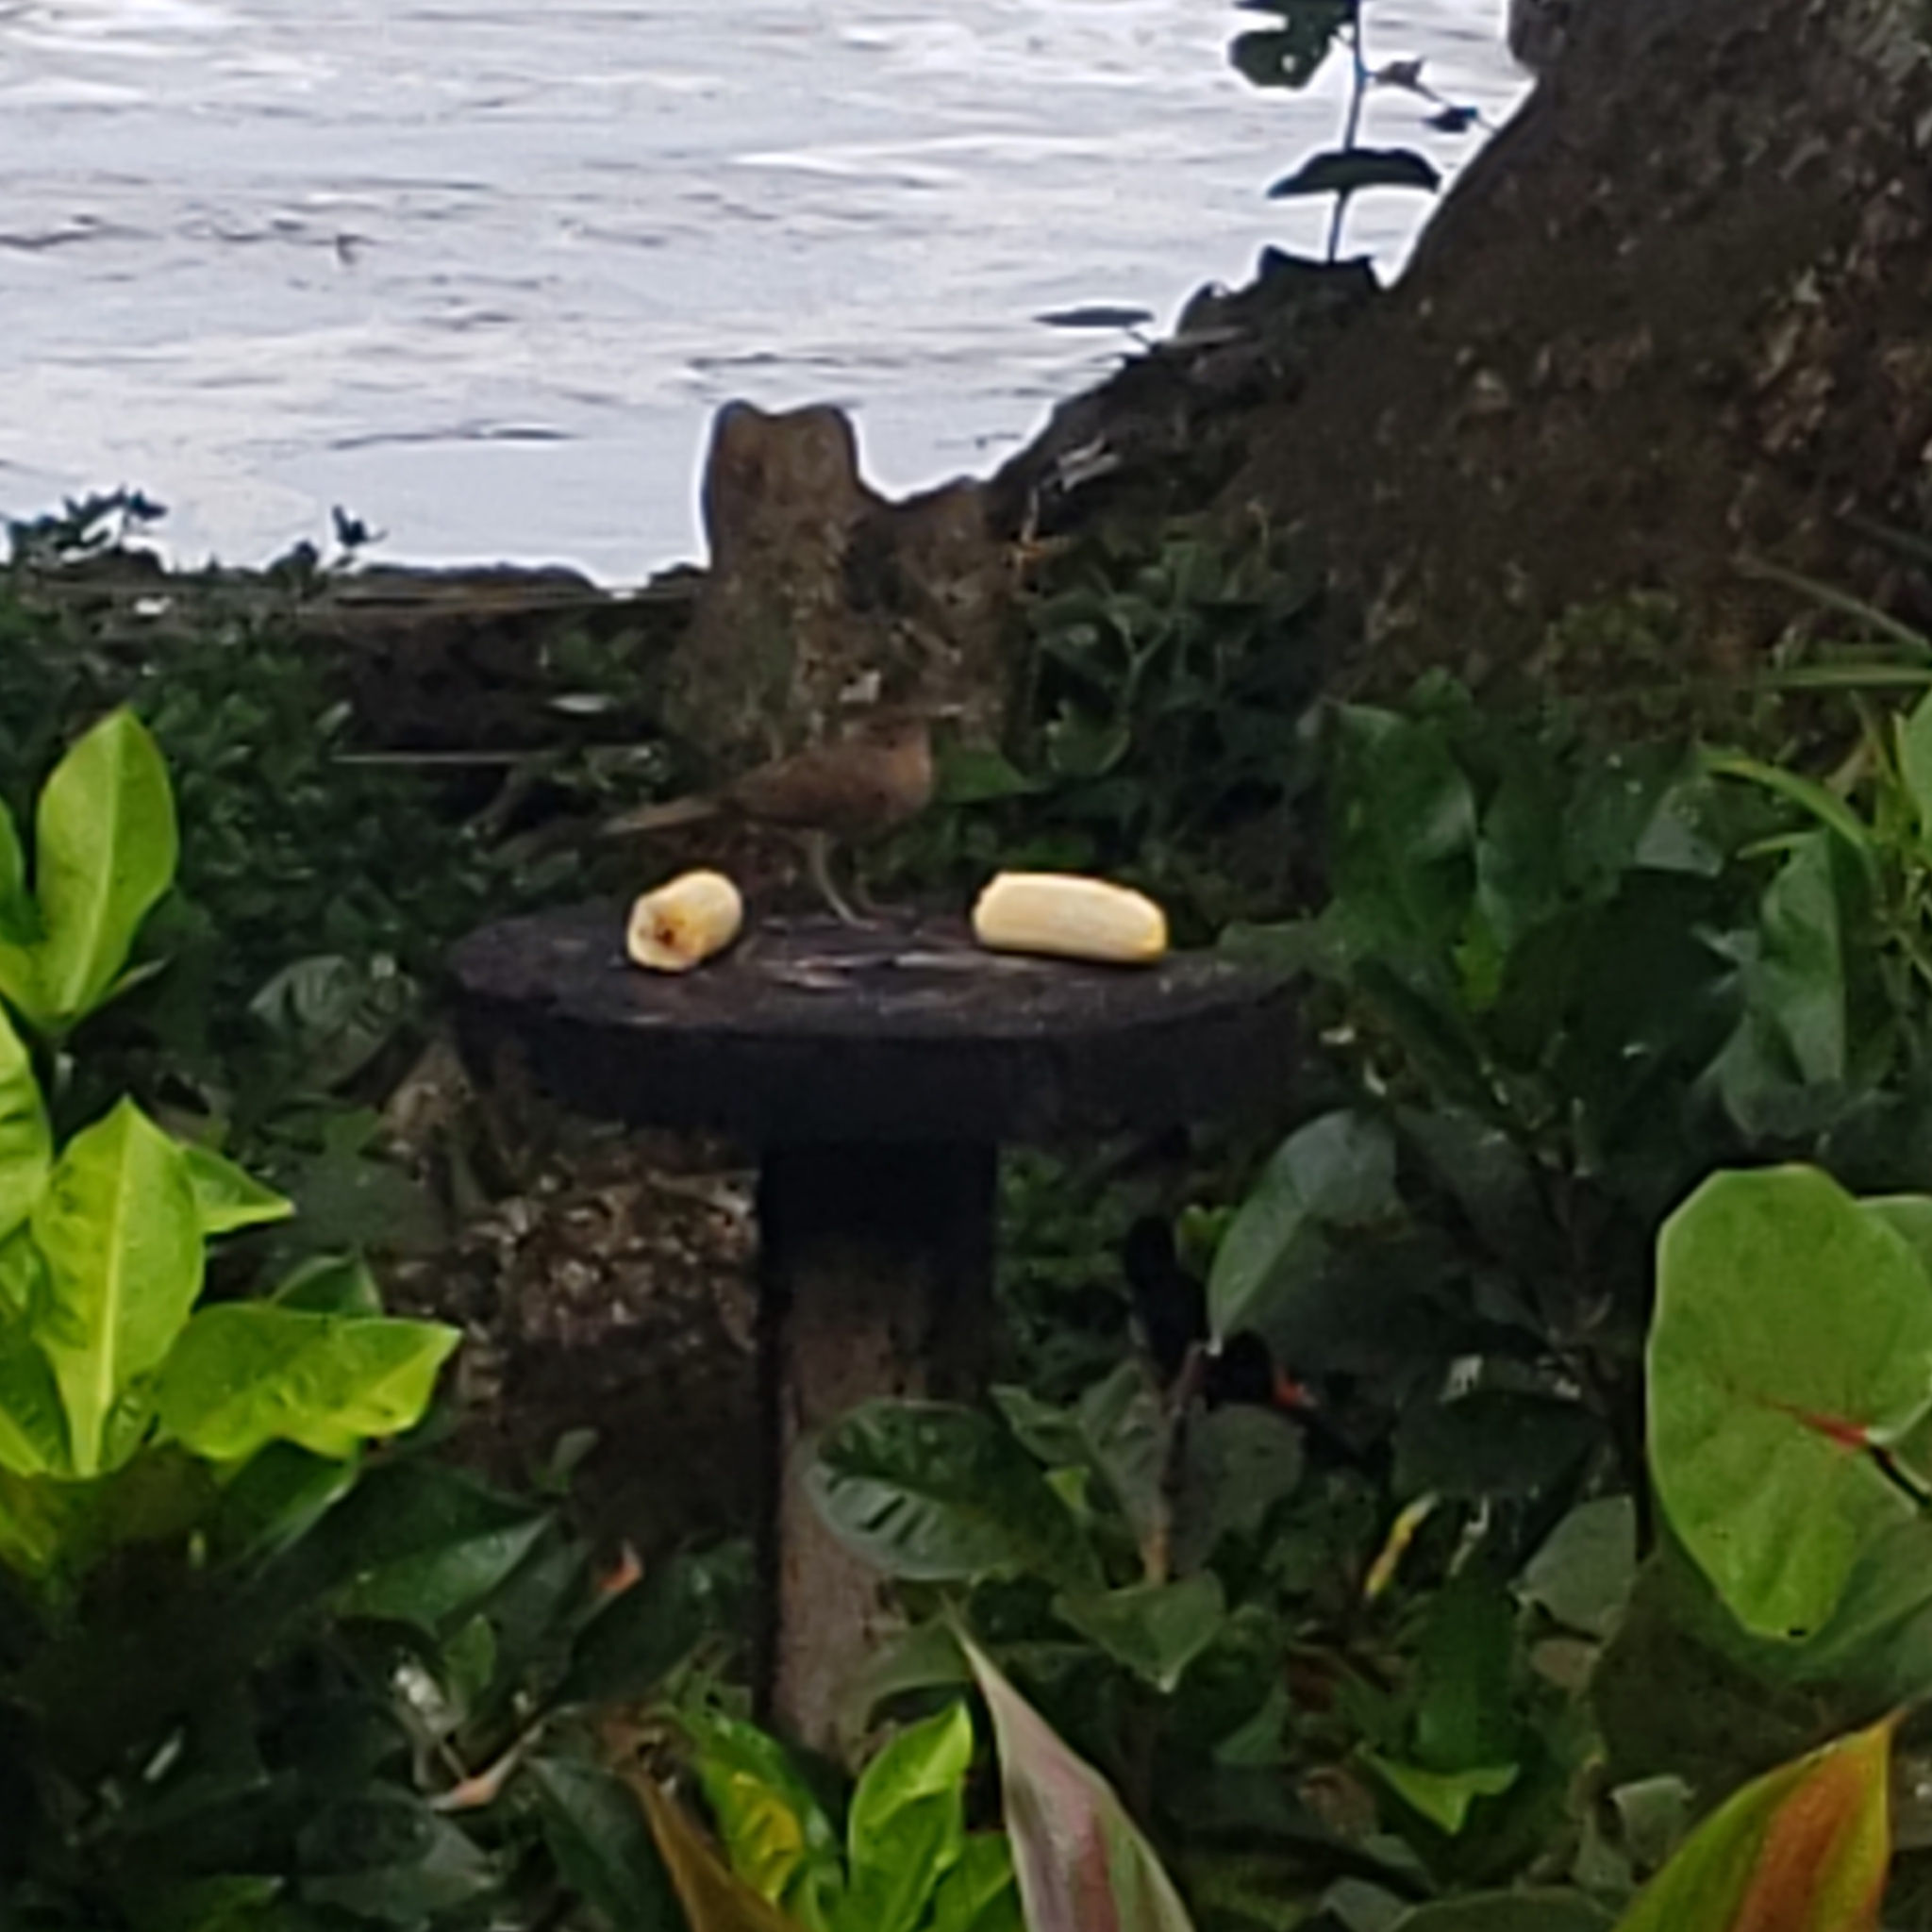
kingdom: Animalia
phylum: Chordata
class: Aves
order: Passeriformes
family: Turdidae
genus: Turdus
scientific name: Turdus grayi
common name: Clay-colored thrush
